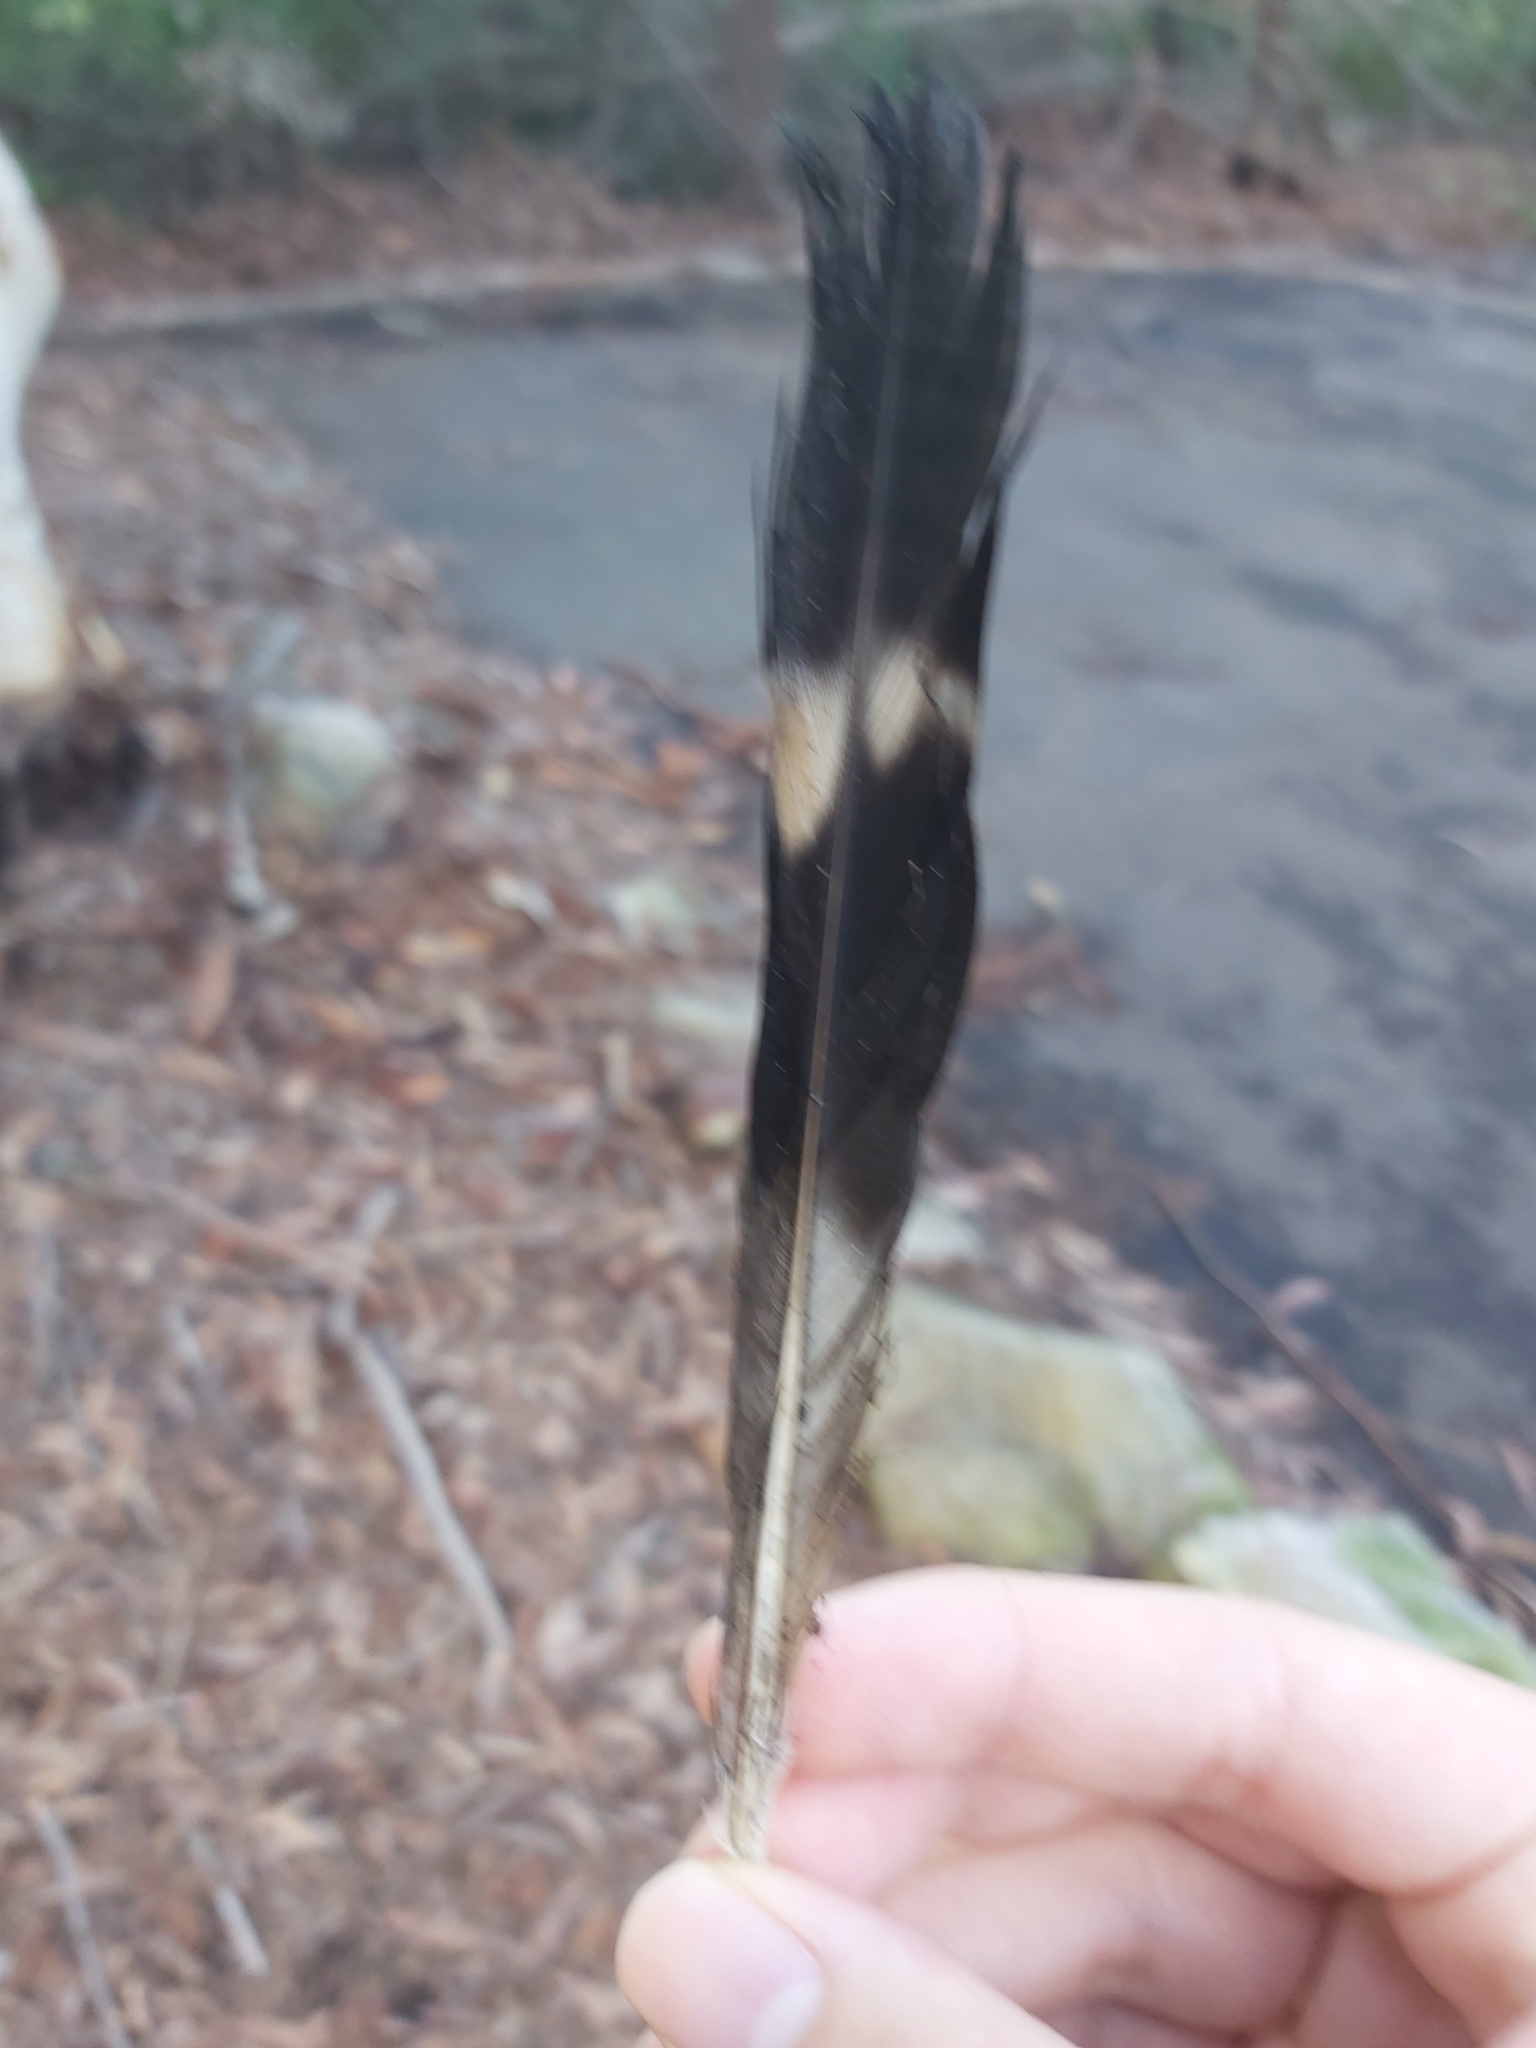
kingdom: Animalia
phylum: Chordata
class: Aves
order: Columbiformes
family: Columbidae
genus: Lopholaimus
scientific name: Lopholaimus antarcticus
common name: Topknot pigeon
